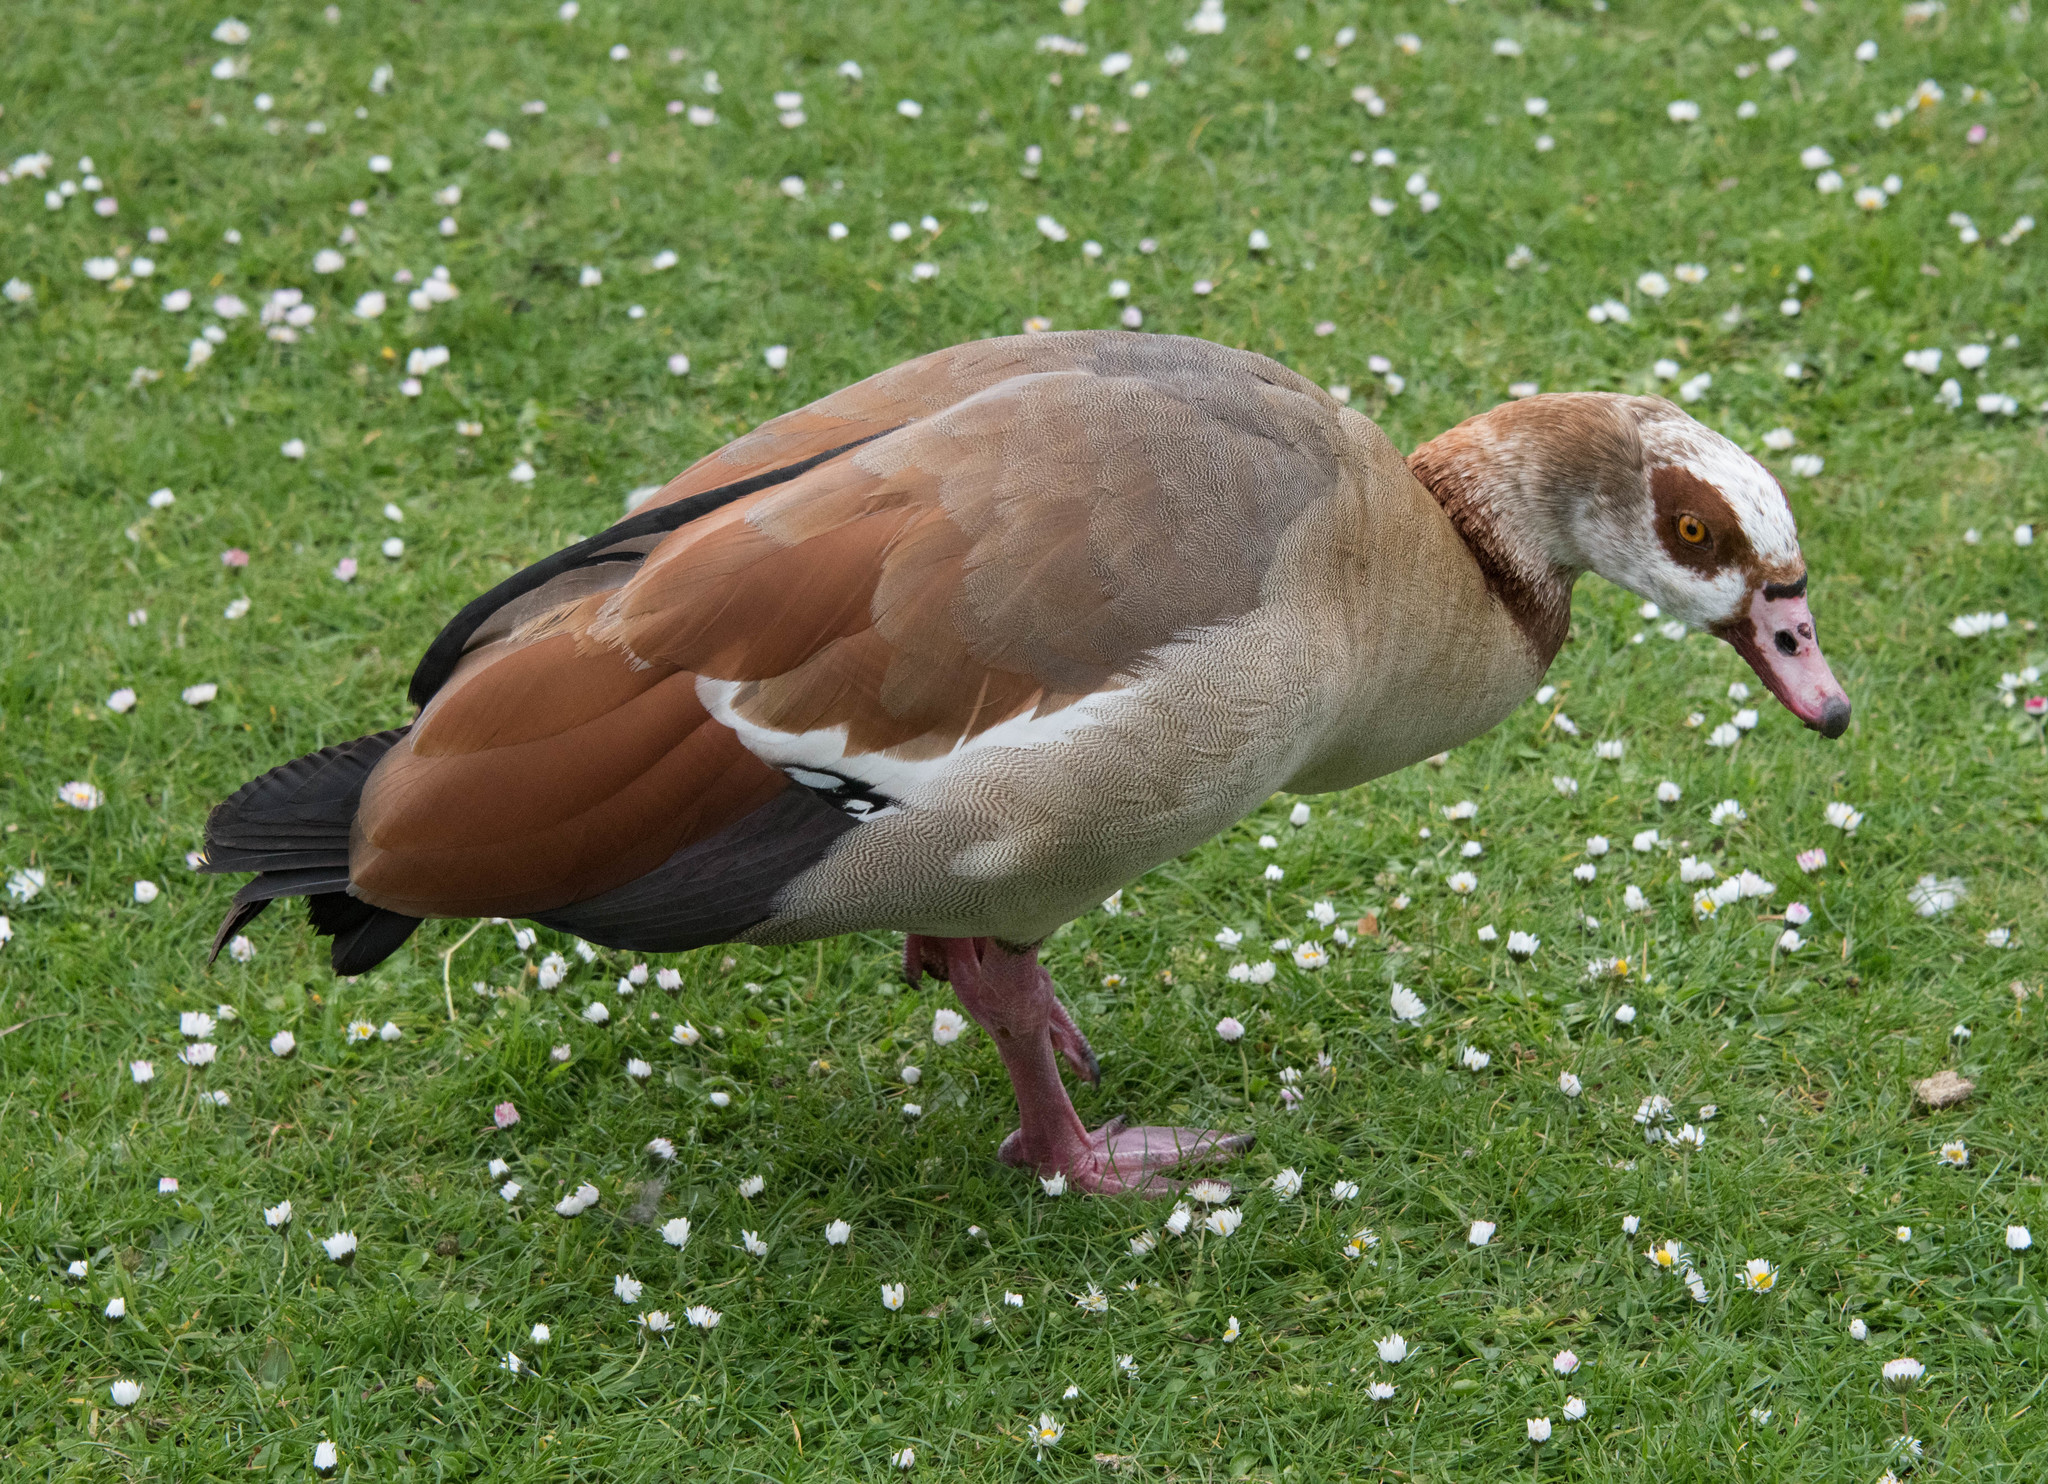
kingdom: Animalia
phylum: Chordata
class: Aves
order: Anseriformes
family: Anatidae
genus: Alopochen
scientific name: Alopochen aegyptiaca
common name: Egyptian goose
